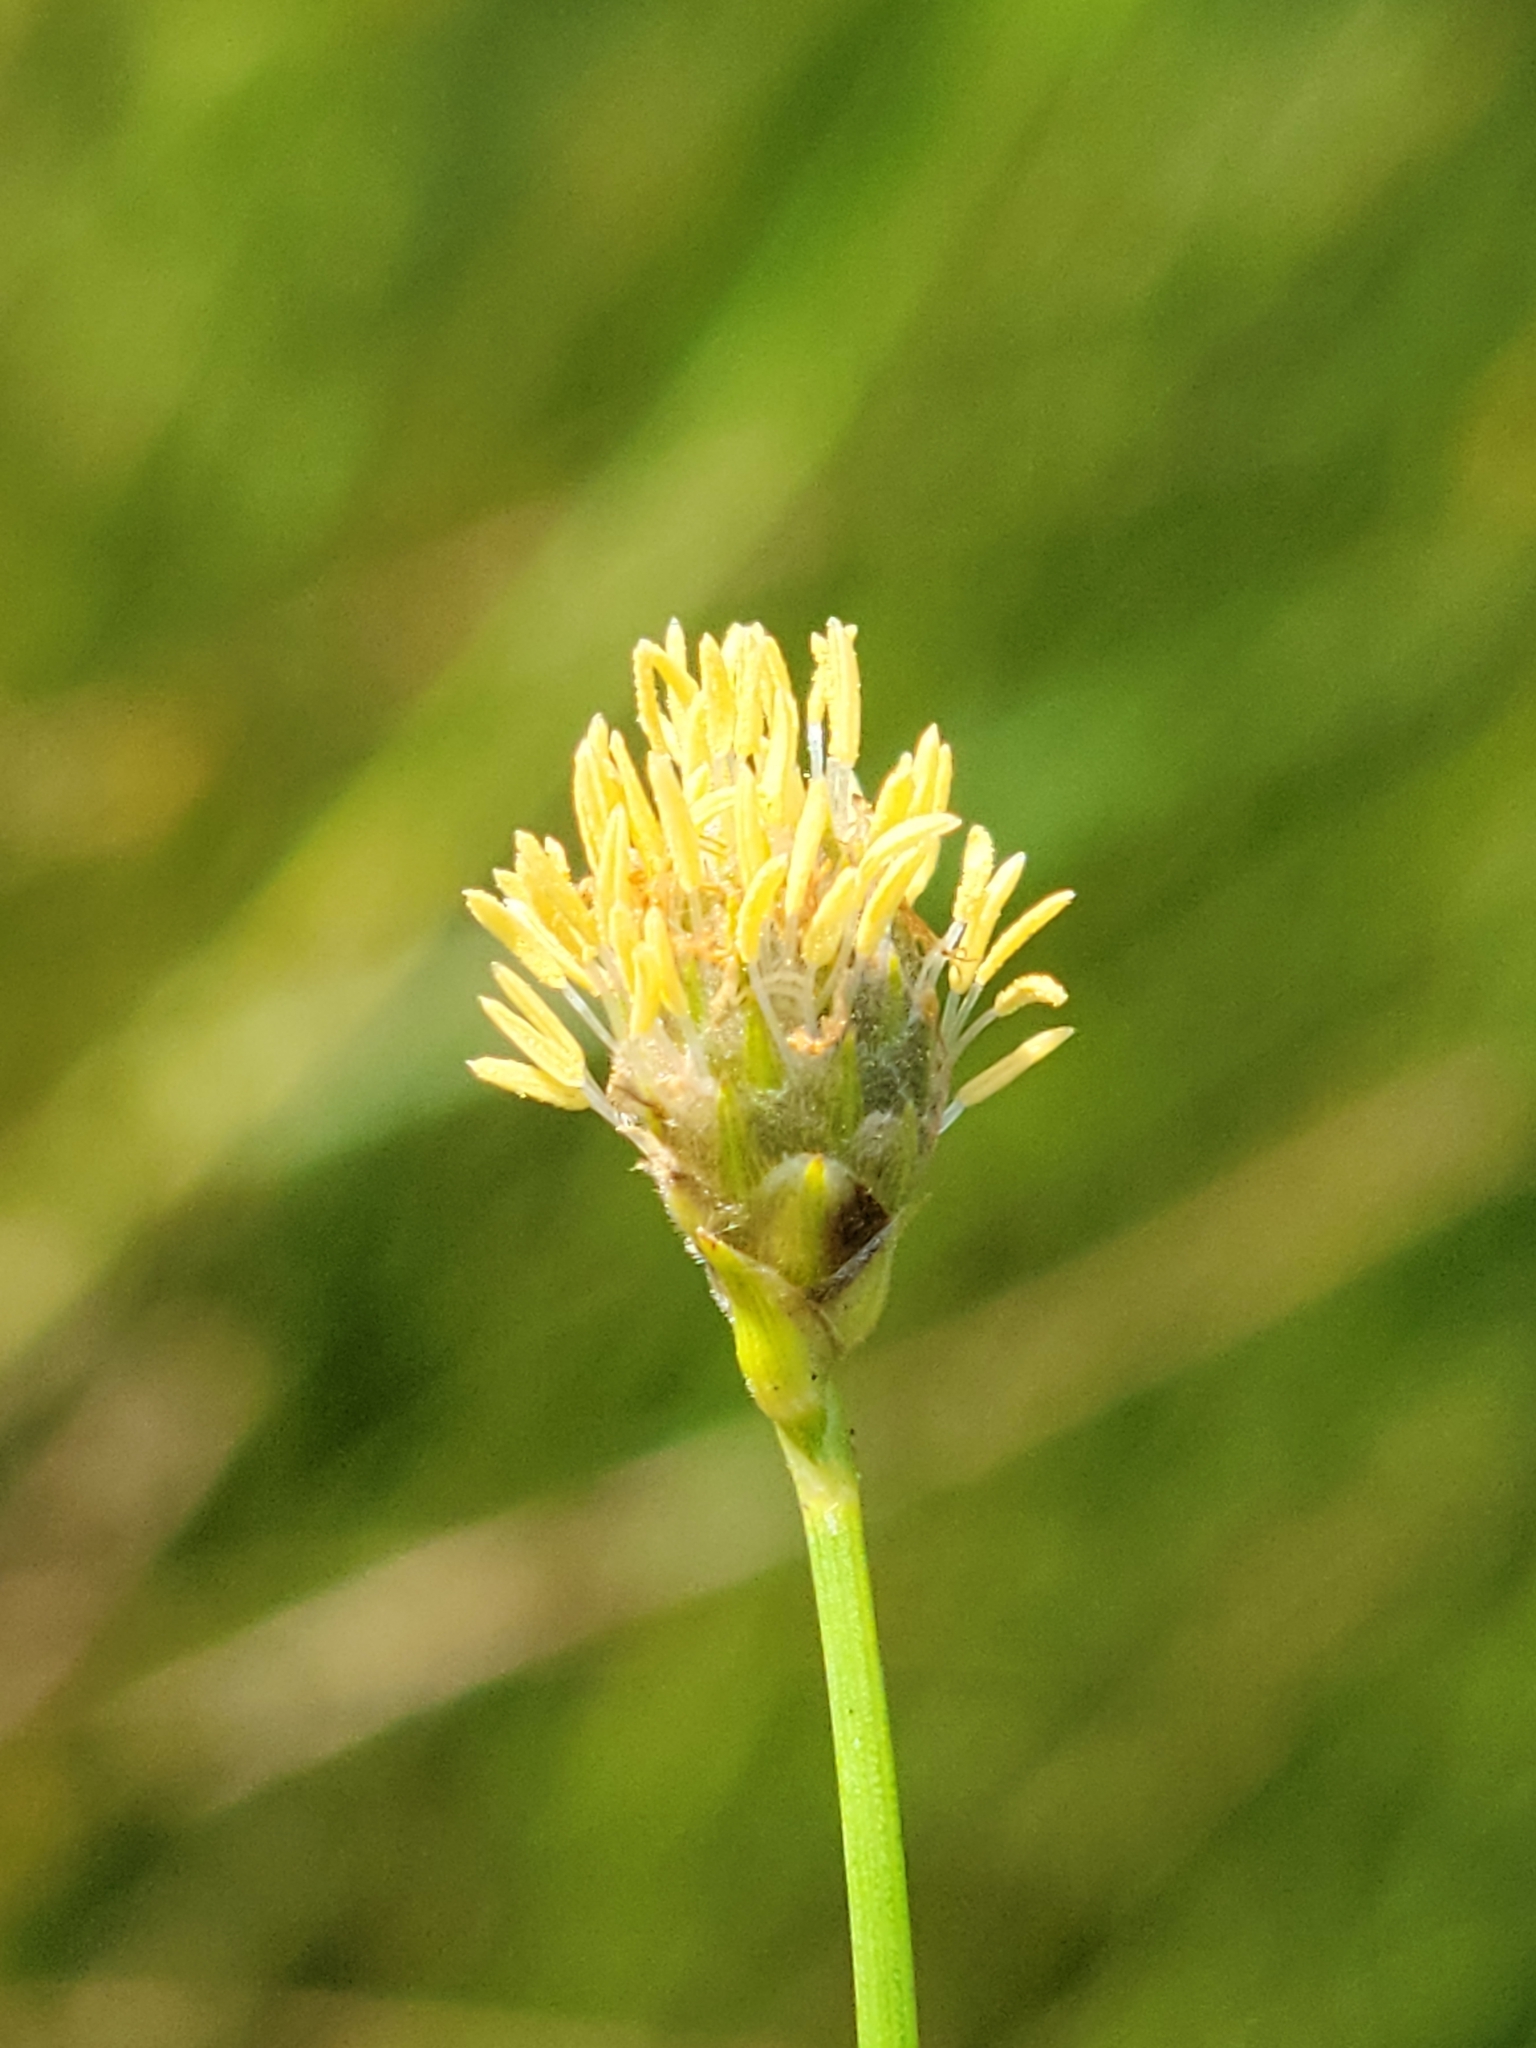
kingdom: Plantae
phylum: Tracheophyta
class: Liliopsida
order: Poales
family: Cyperaceae
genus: Fuirena
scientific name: Fuirena scirpoidea
